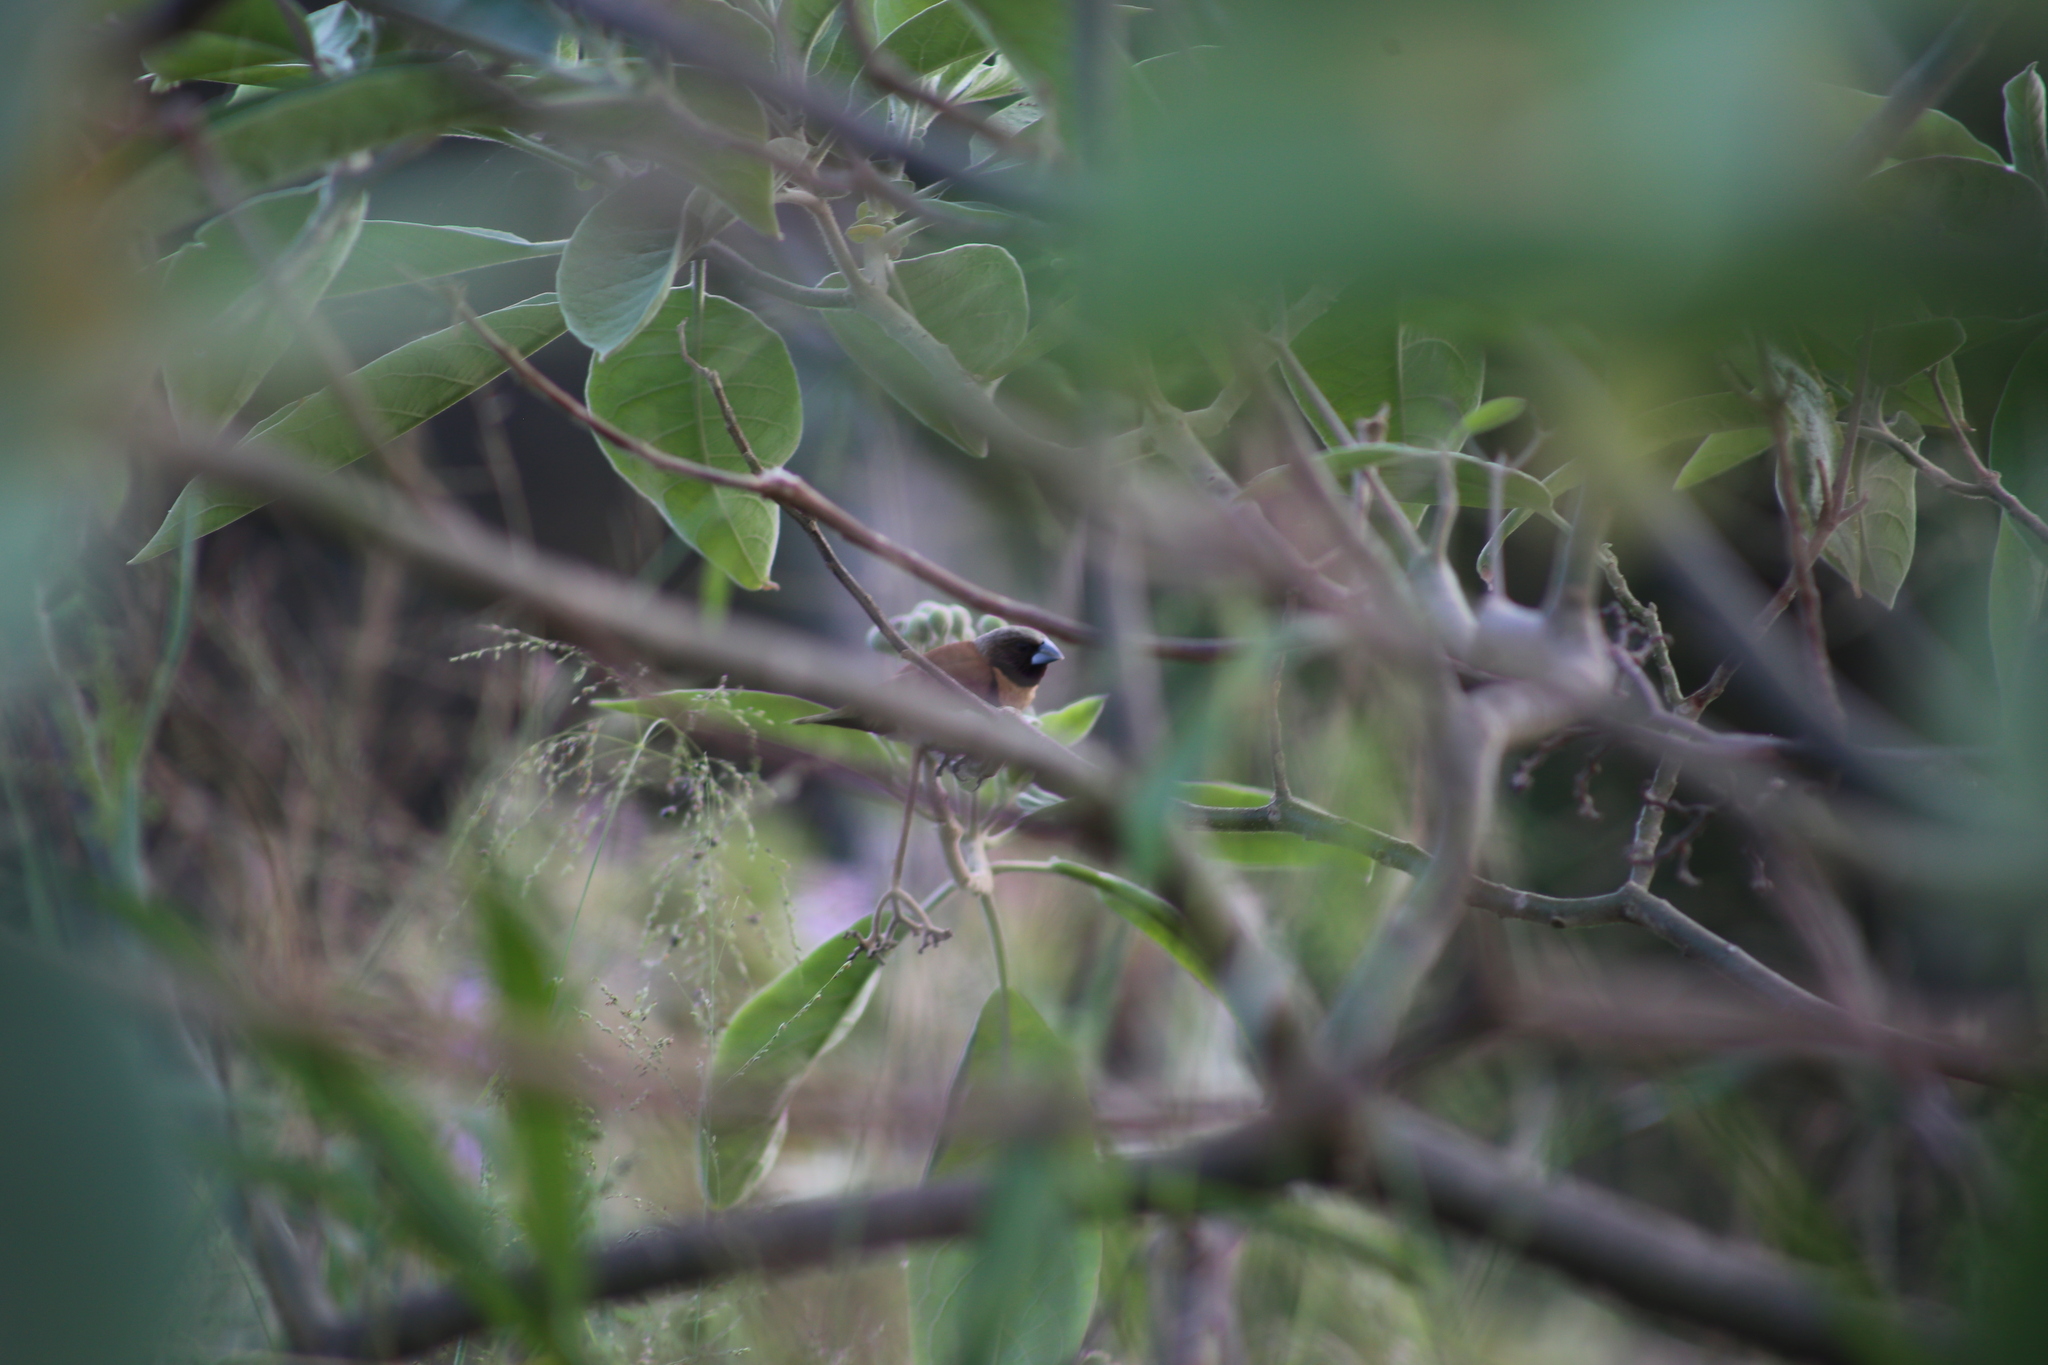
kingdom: Animalia
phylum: Chordata
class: Aves
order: Passeriformes
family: Estrildidae
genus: Lonchura
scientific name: Lonchura castaneothorax
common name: Chestnut-breasted mannikin
